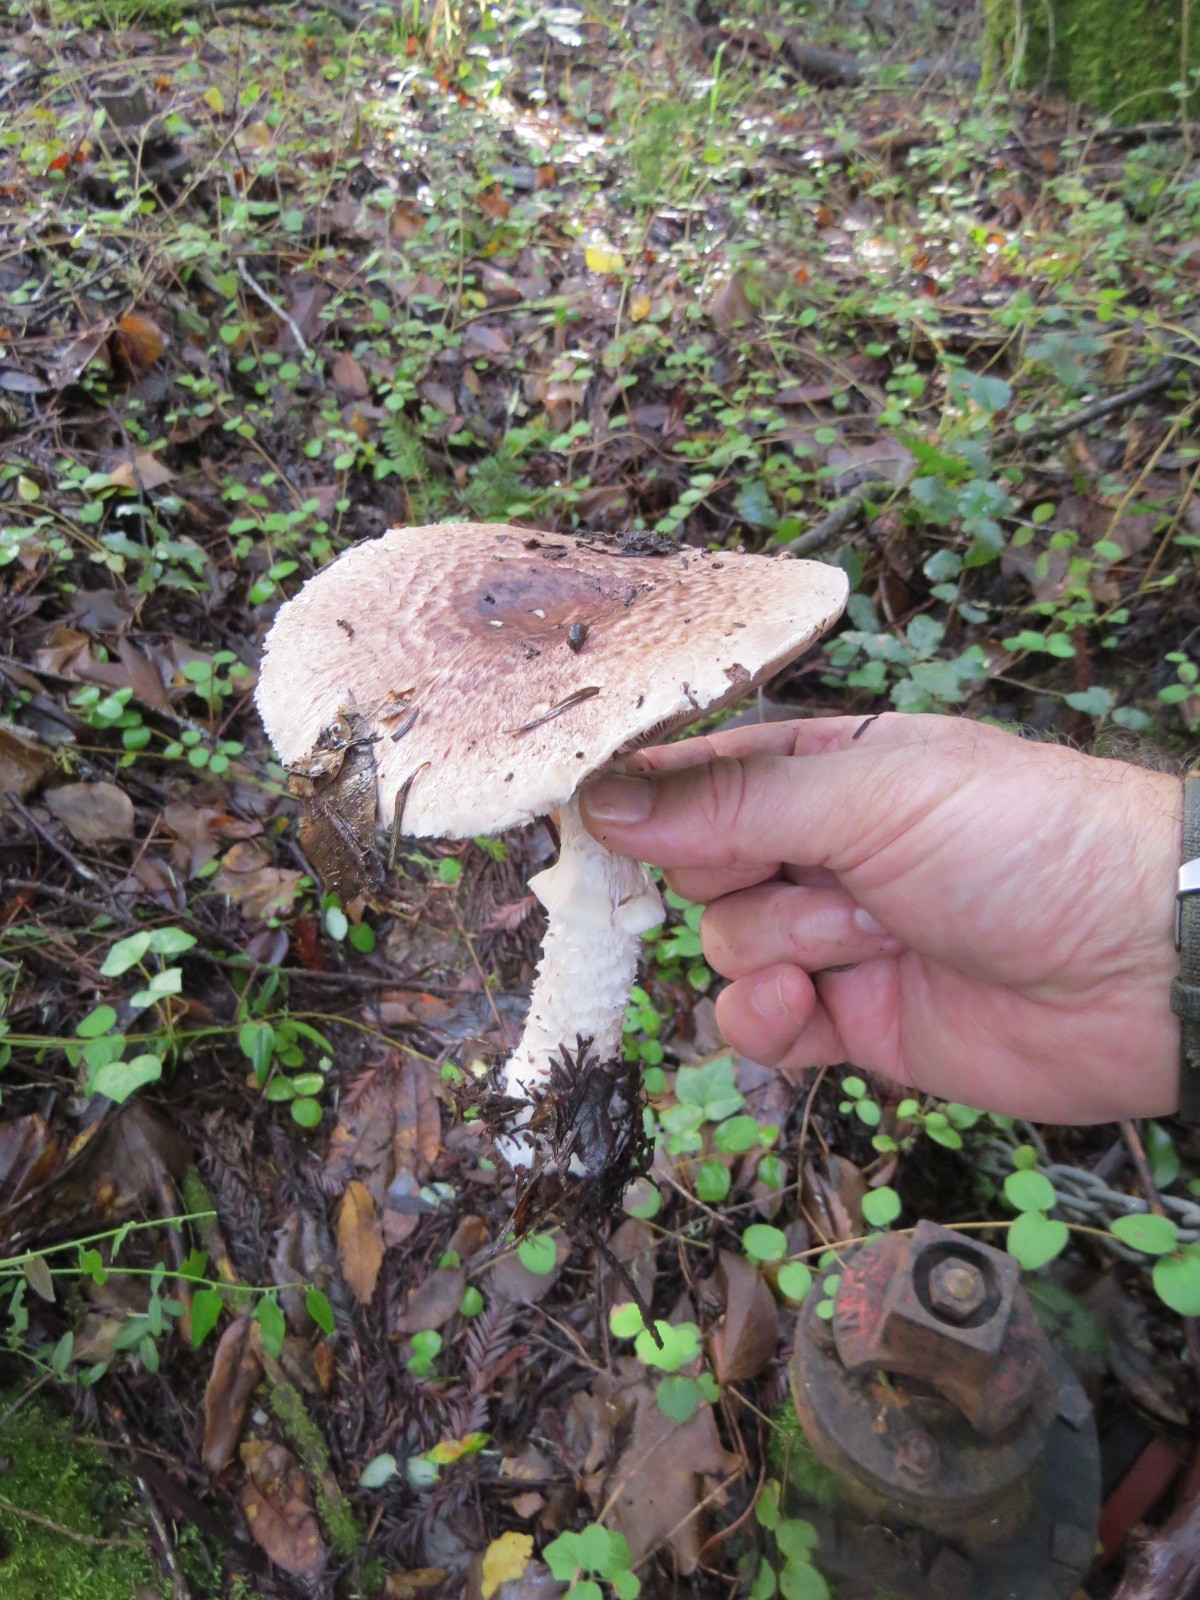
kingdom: Fungi
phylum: Basidiomycota
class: Agaricomycetes
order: Agaricales
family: Agaricaceae
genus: Agaricus
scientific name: Agaricus augustus
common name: Prince
